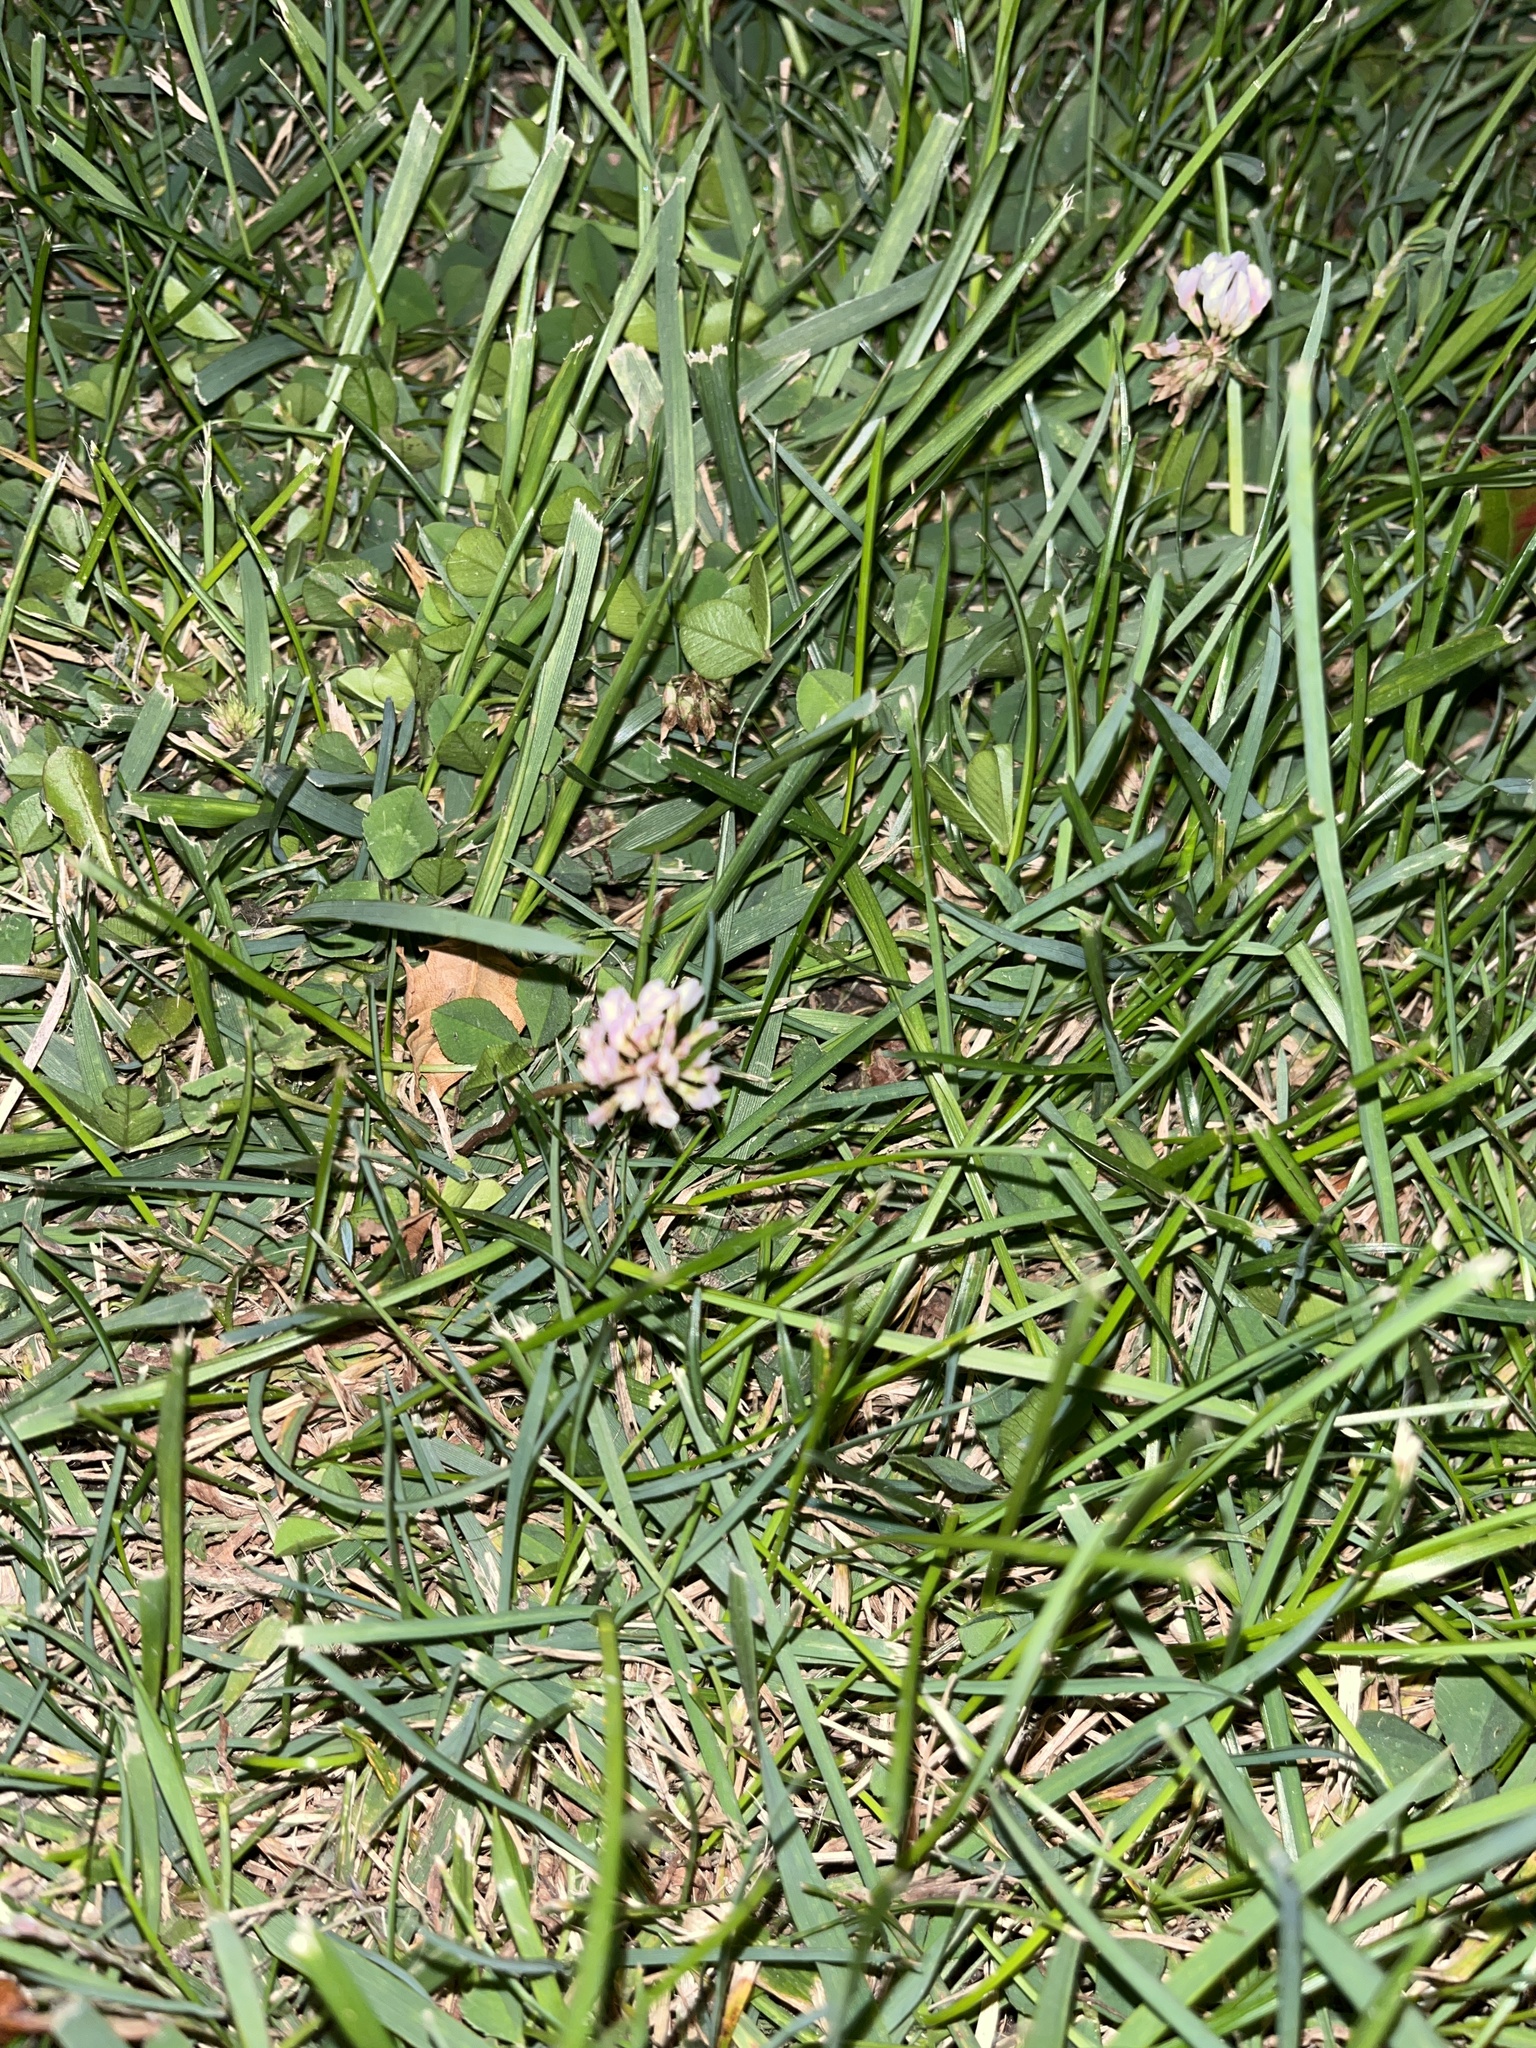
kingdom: Plantae
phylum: Tracheophyta
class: Magnoliopsida
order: Fabales
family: Fabaceae
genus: Trifolium
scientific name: Trifolium repens
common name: White clover
